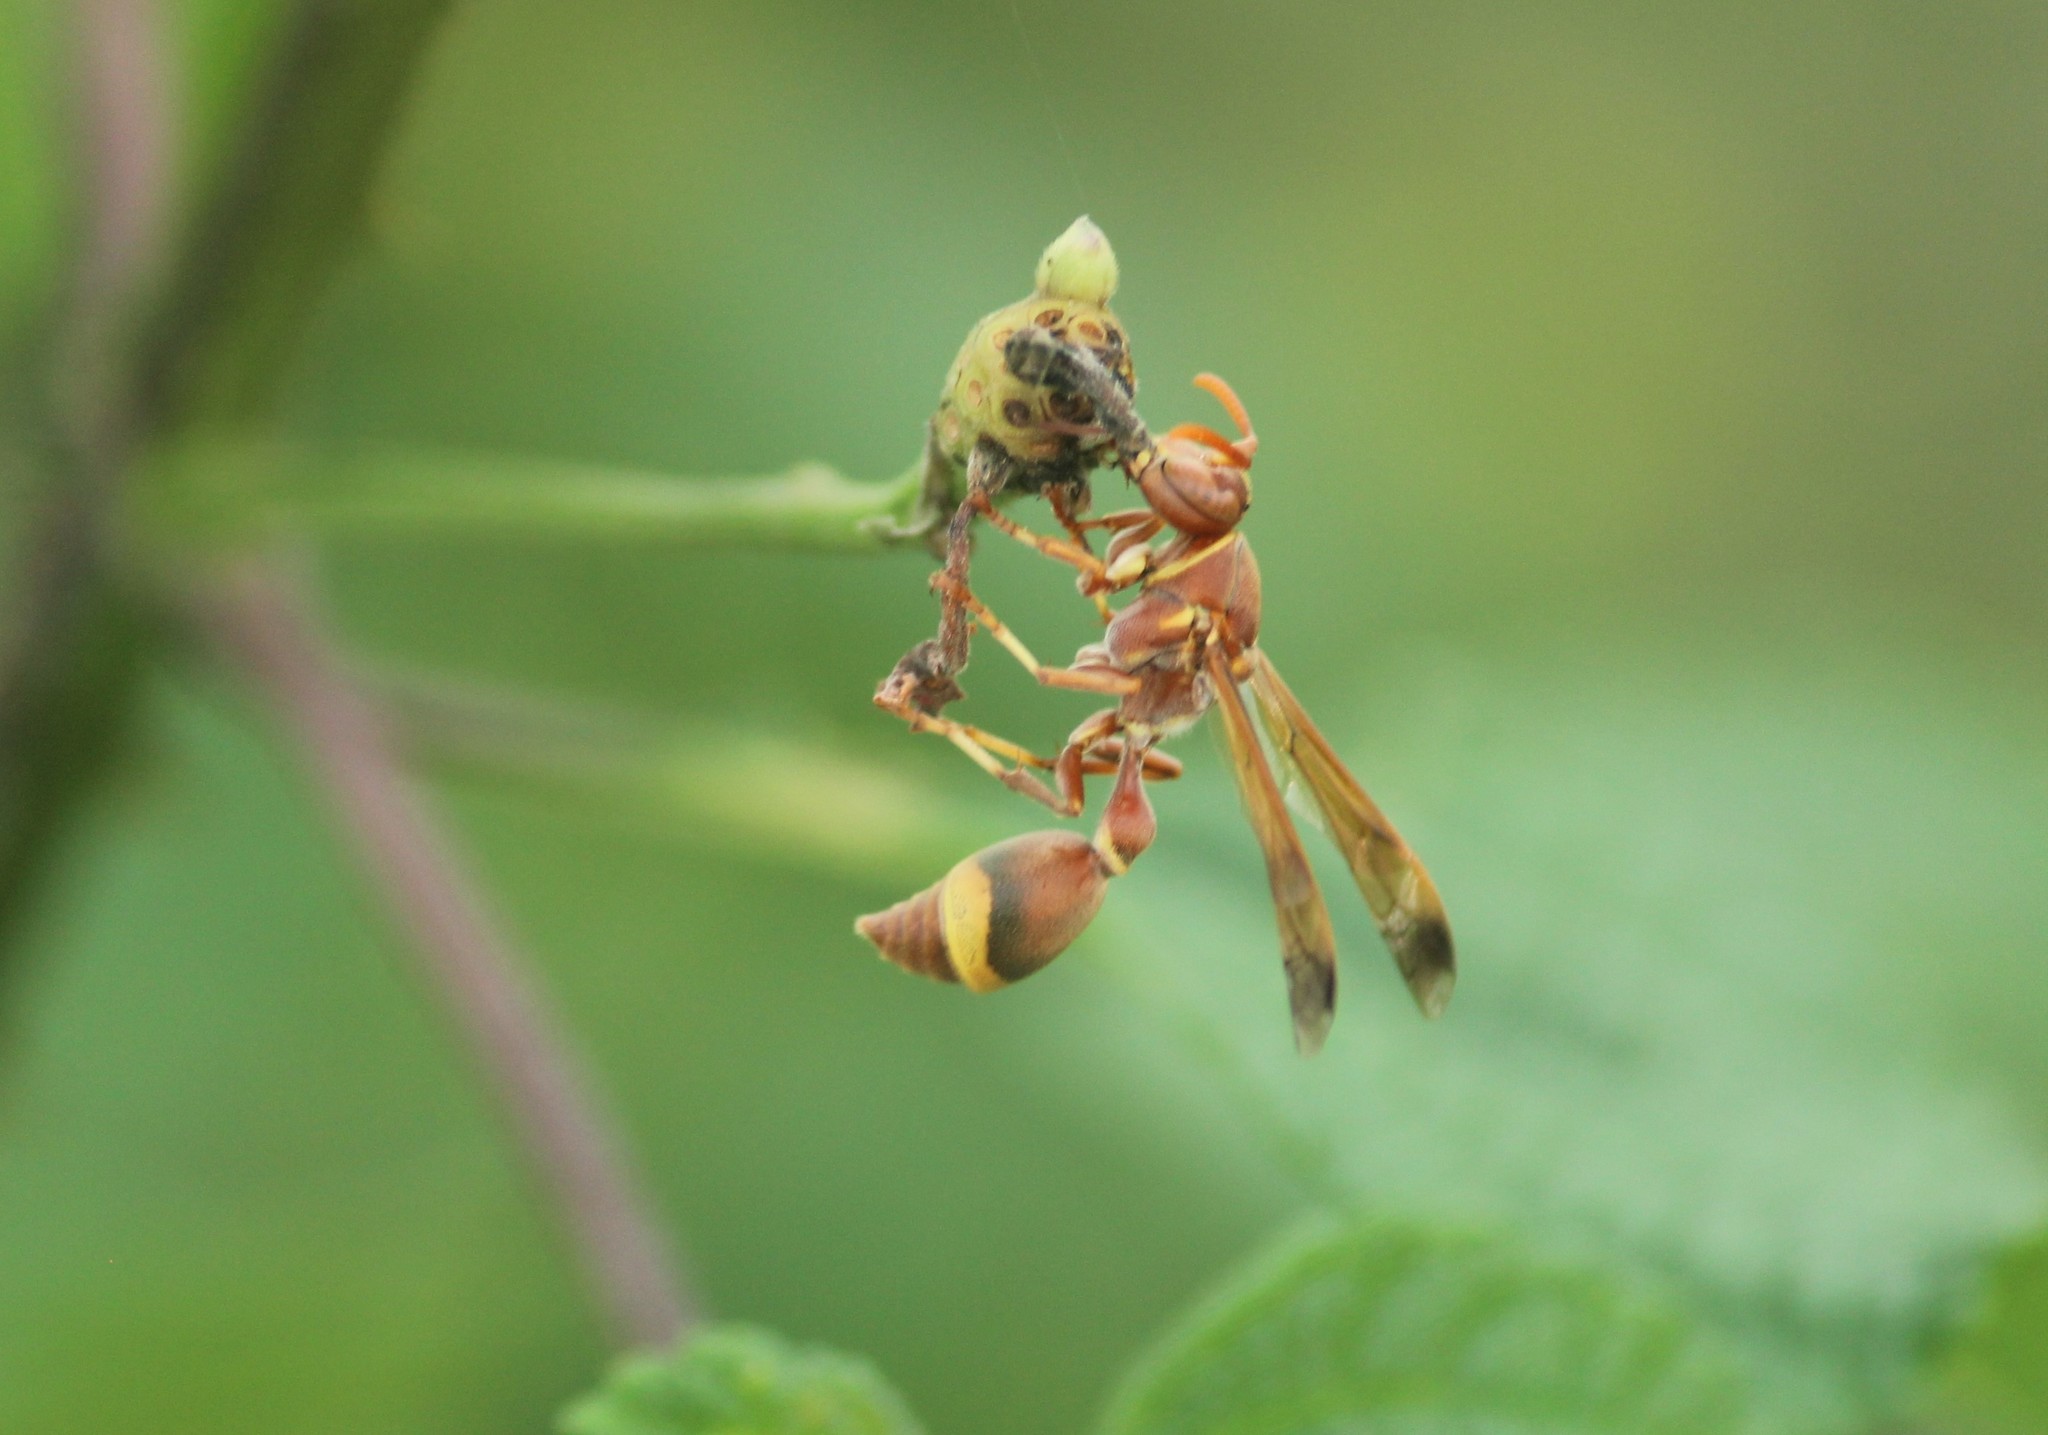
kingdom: Animalia
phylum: Arthropoda
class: Insecta
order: Hymenoptera
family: Vespidae
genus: Ropalidia
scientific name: Ropalidia
